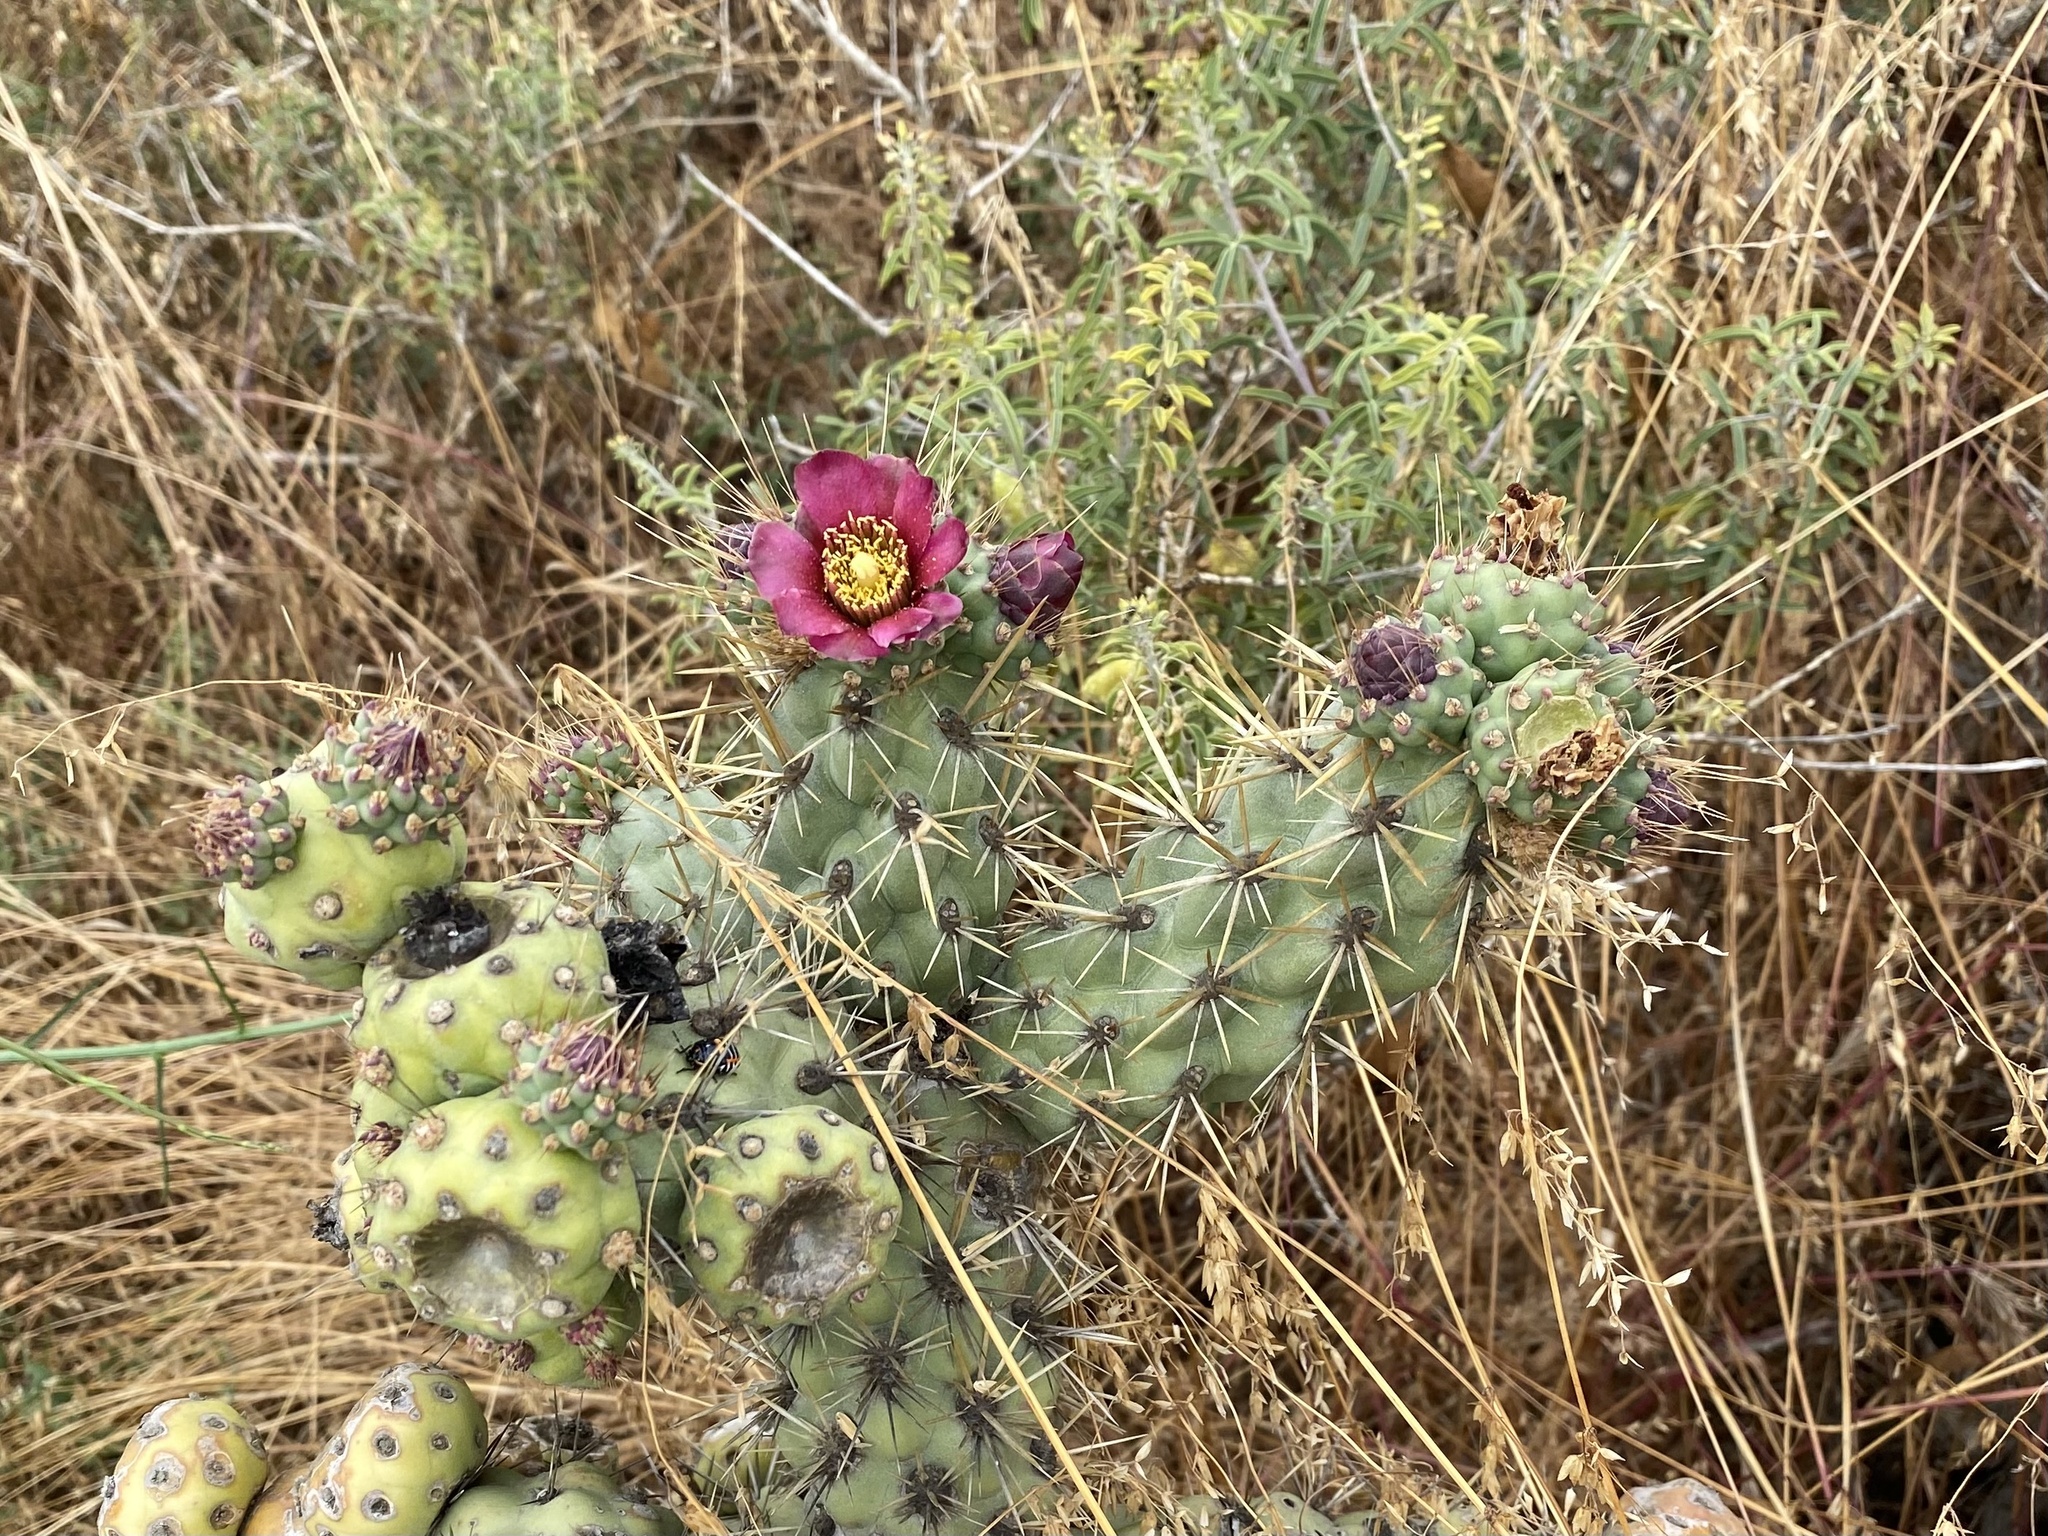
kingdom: Plantae
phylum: Tracheophyta
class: Magnoliopsida
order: Caryophyllales
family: Cactaceae
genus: Cylindropuntia
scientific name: Cylindropuntia prolifera
